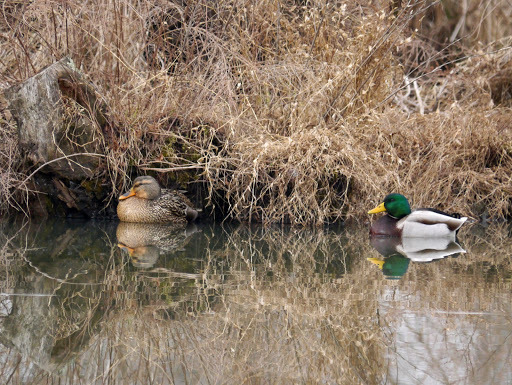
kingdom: Animalia
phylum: Chordata
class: Aves
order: Anseriformes
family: Anatidae
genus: Anas
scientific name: Anas platyrhynchos
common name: Mallard
